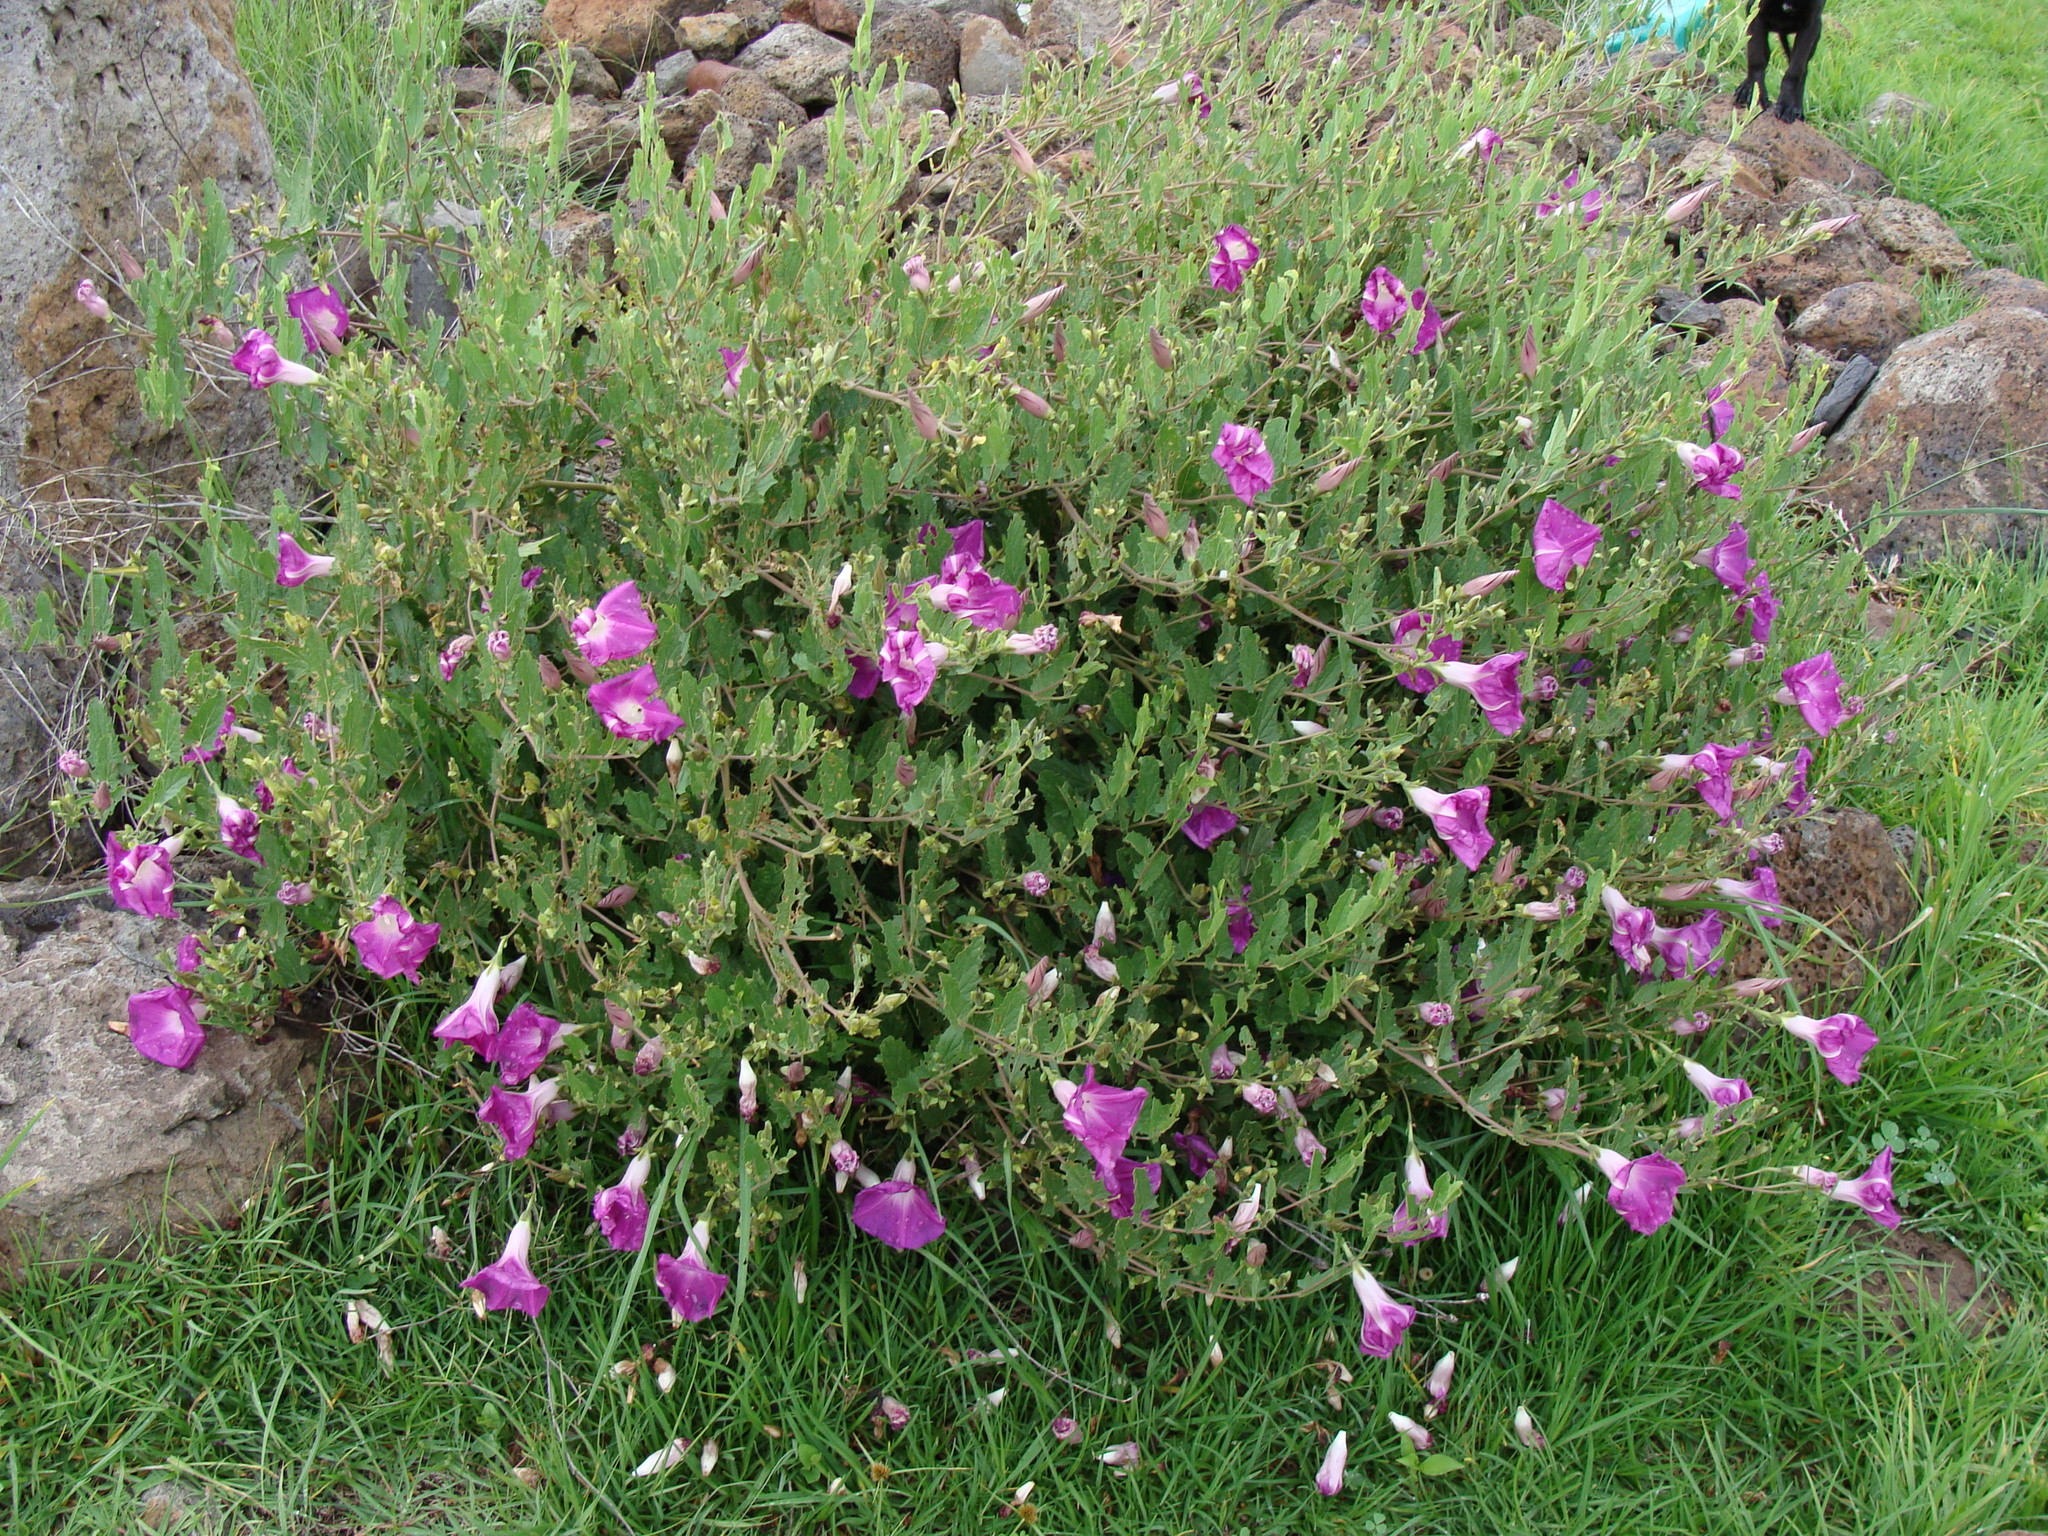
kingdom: Plantae
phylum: Tracheophyta
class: Magnoliopsida
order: Solanales
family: Convolvulaceae
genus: Ipomoea
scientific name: Ipomoea stans
